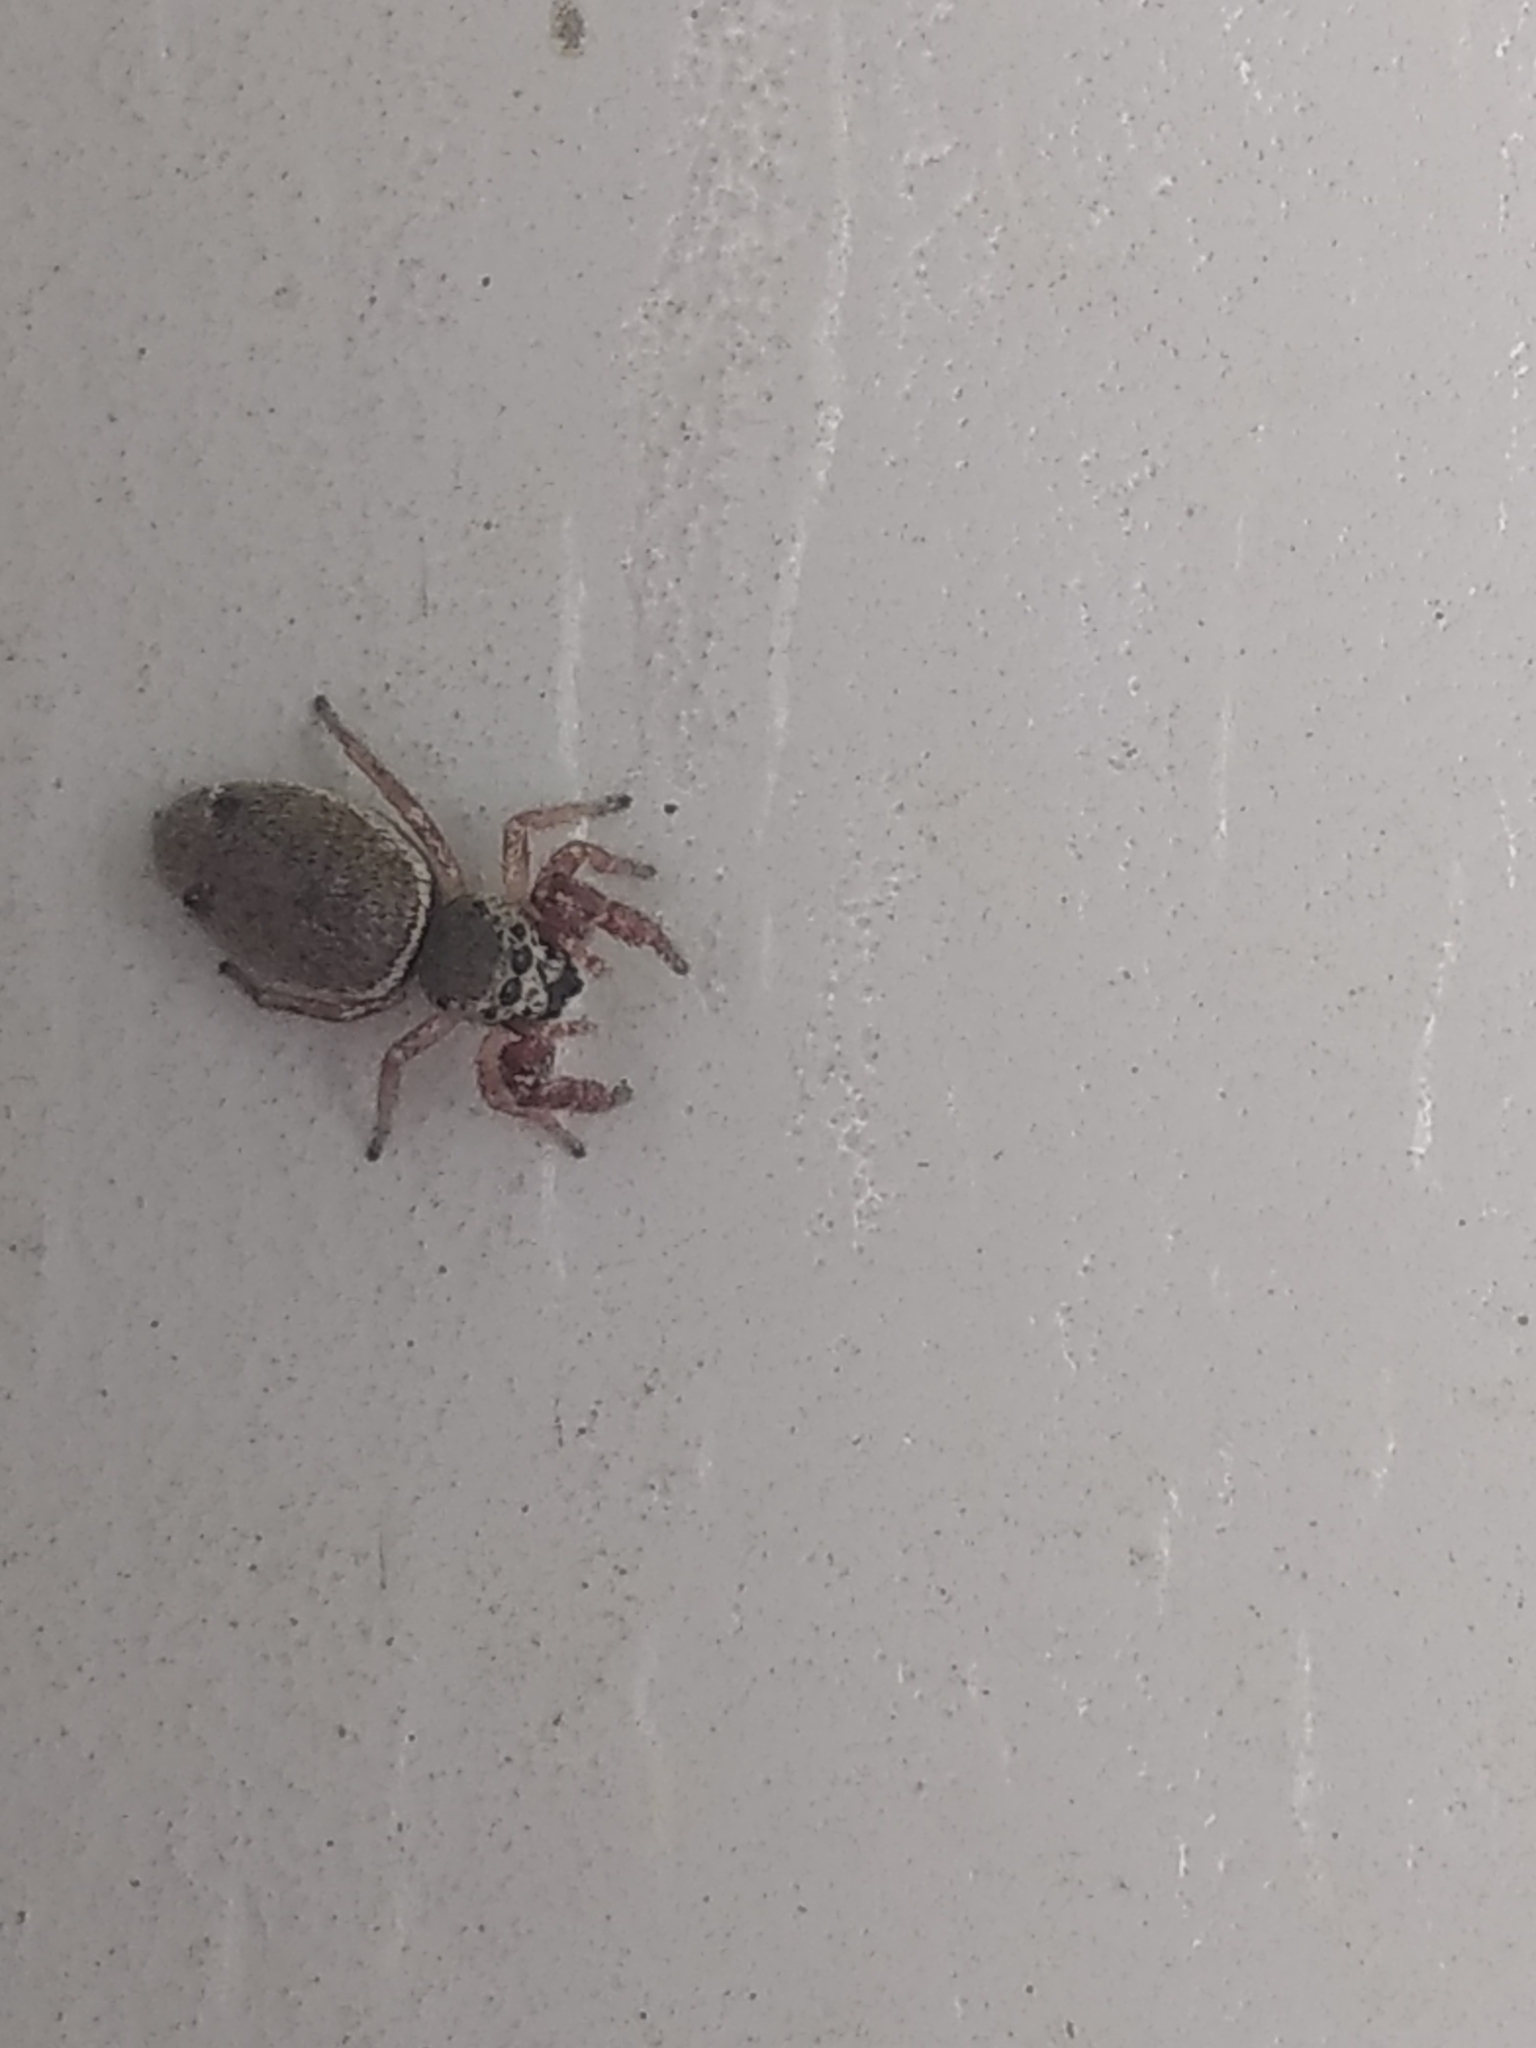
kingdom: Animalia
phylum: Arthropoda
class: Arachnida
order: Araneae
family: Salticidae
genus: Sassacus
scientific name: Sassacus vitis
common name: Jumping spiders
